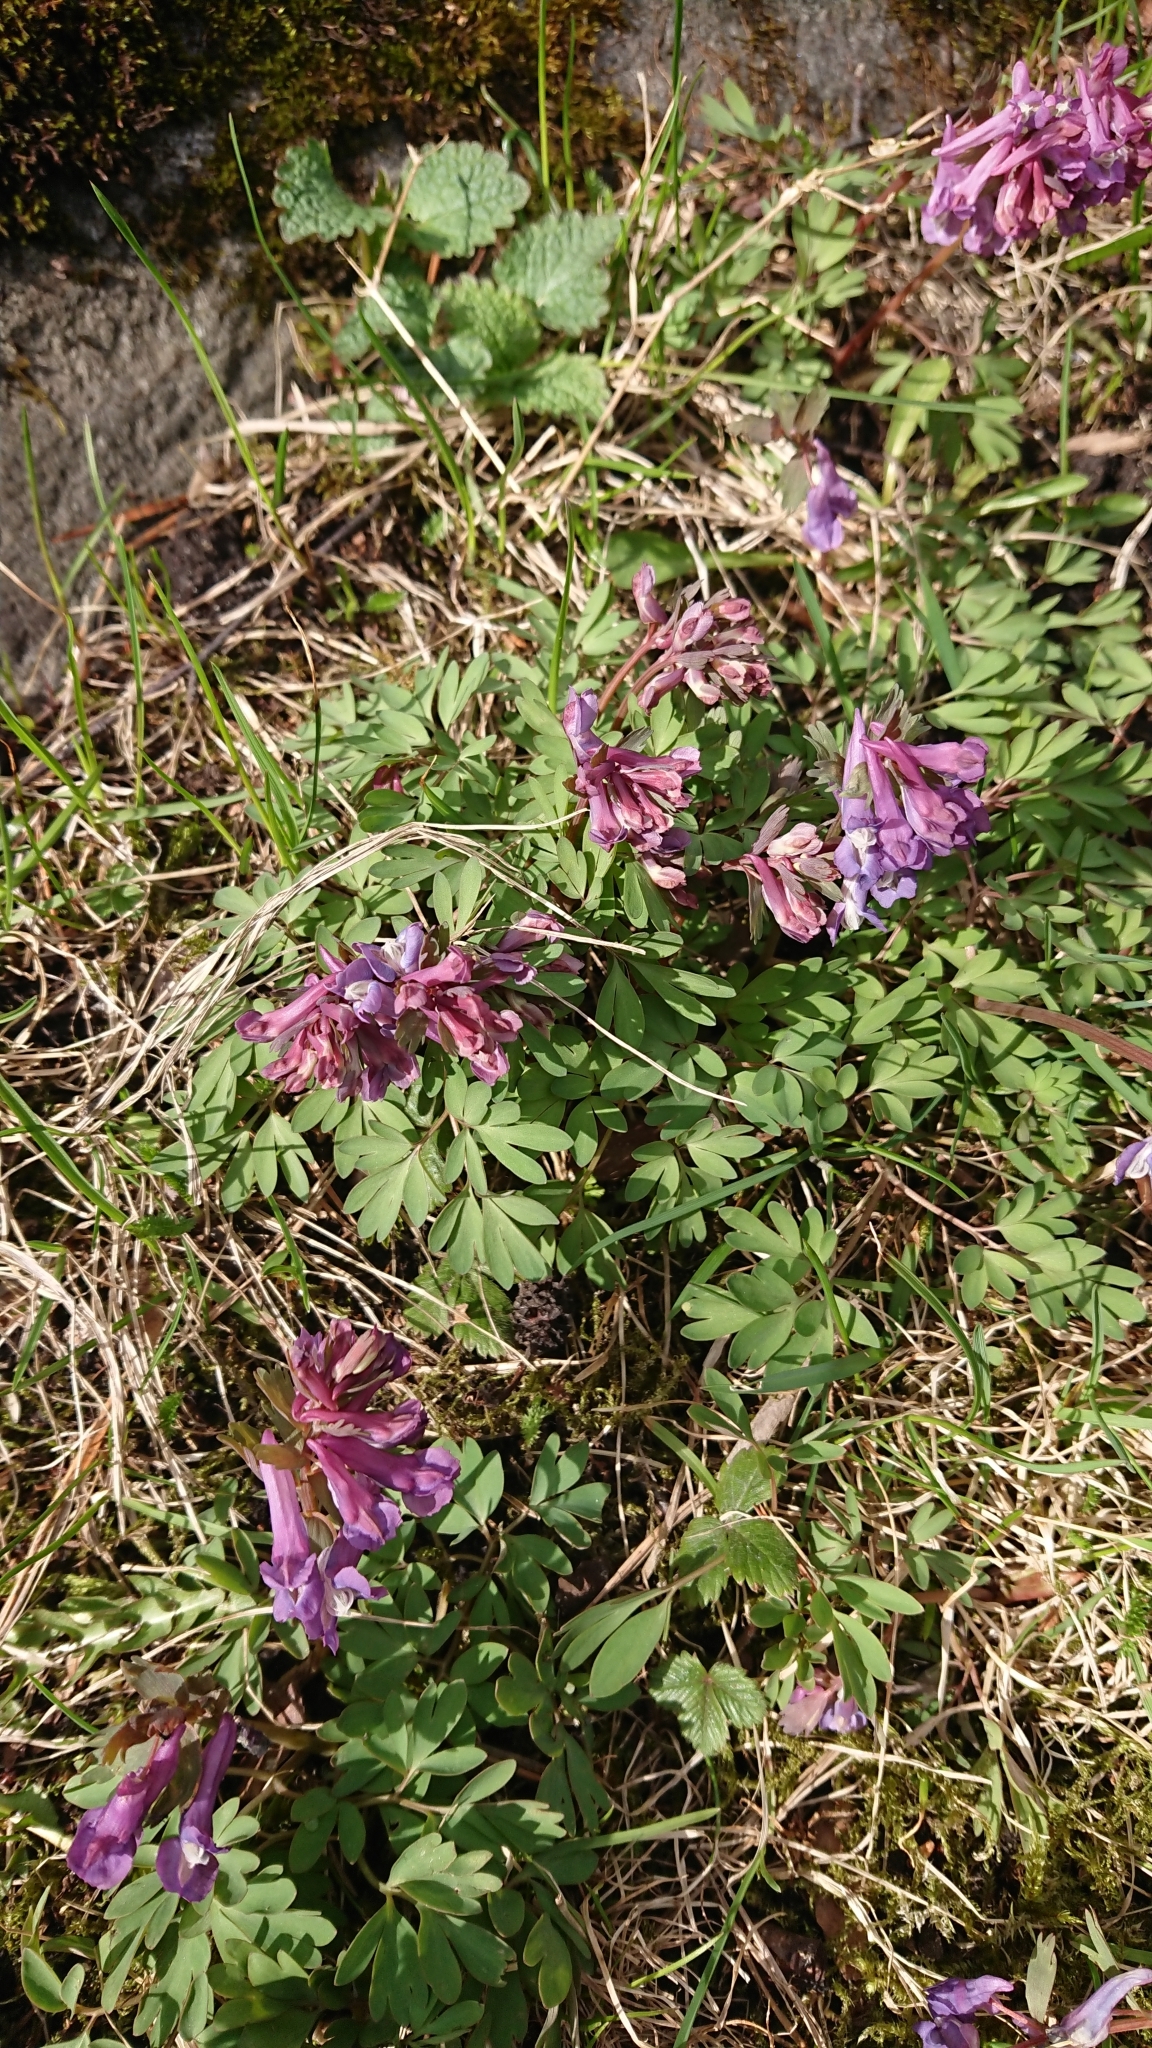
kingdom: Plantae
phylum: Tracheophyta
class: Magnoliopsida
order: Ranunculales
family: Papaveraceae
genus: Corydalis
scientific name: Corydalis solida
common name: Bird-in-a-bush
